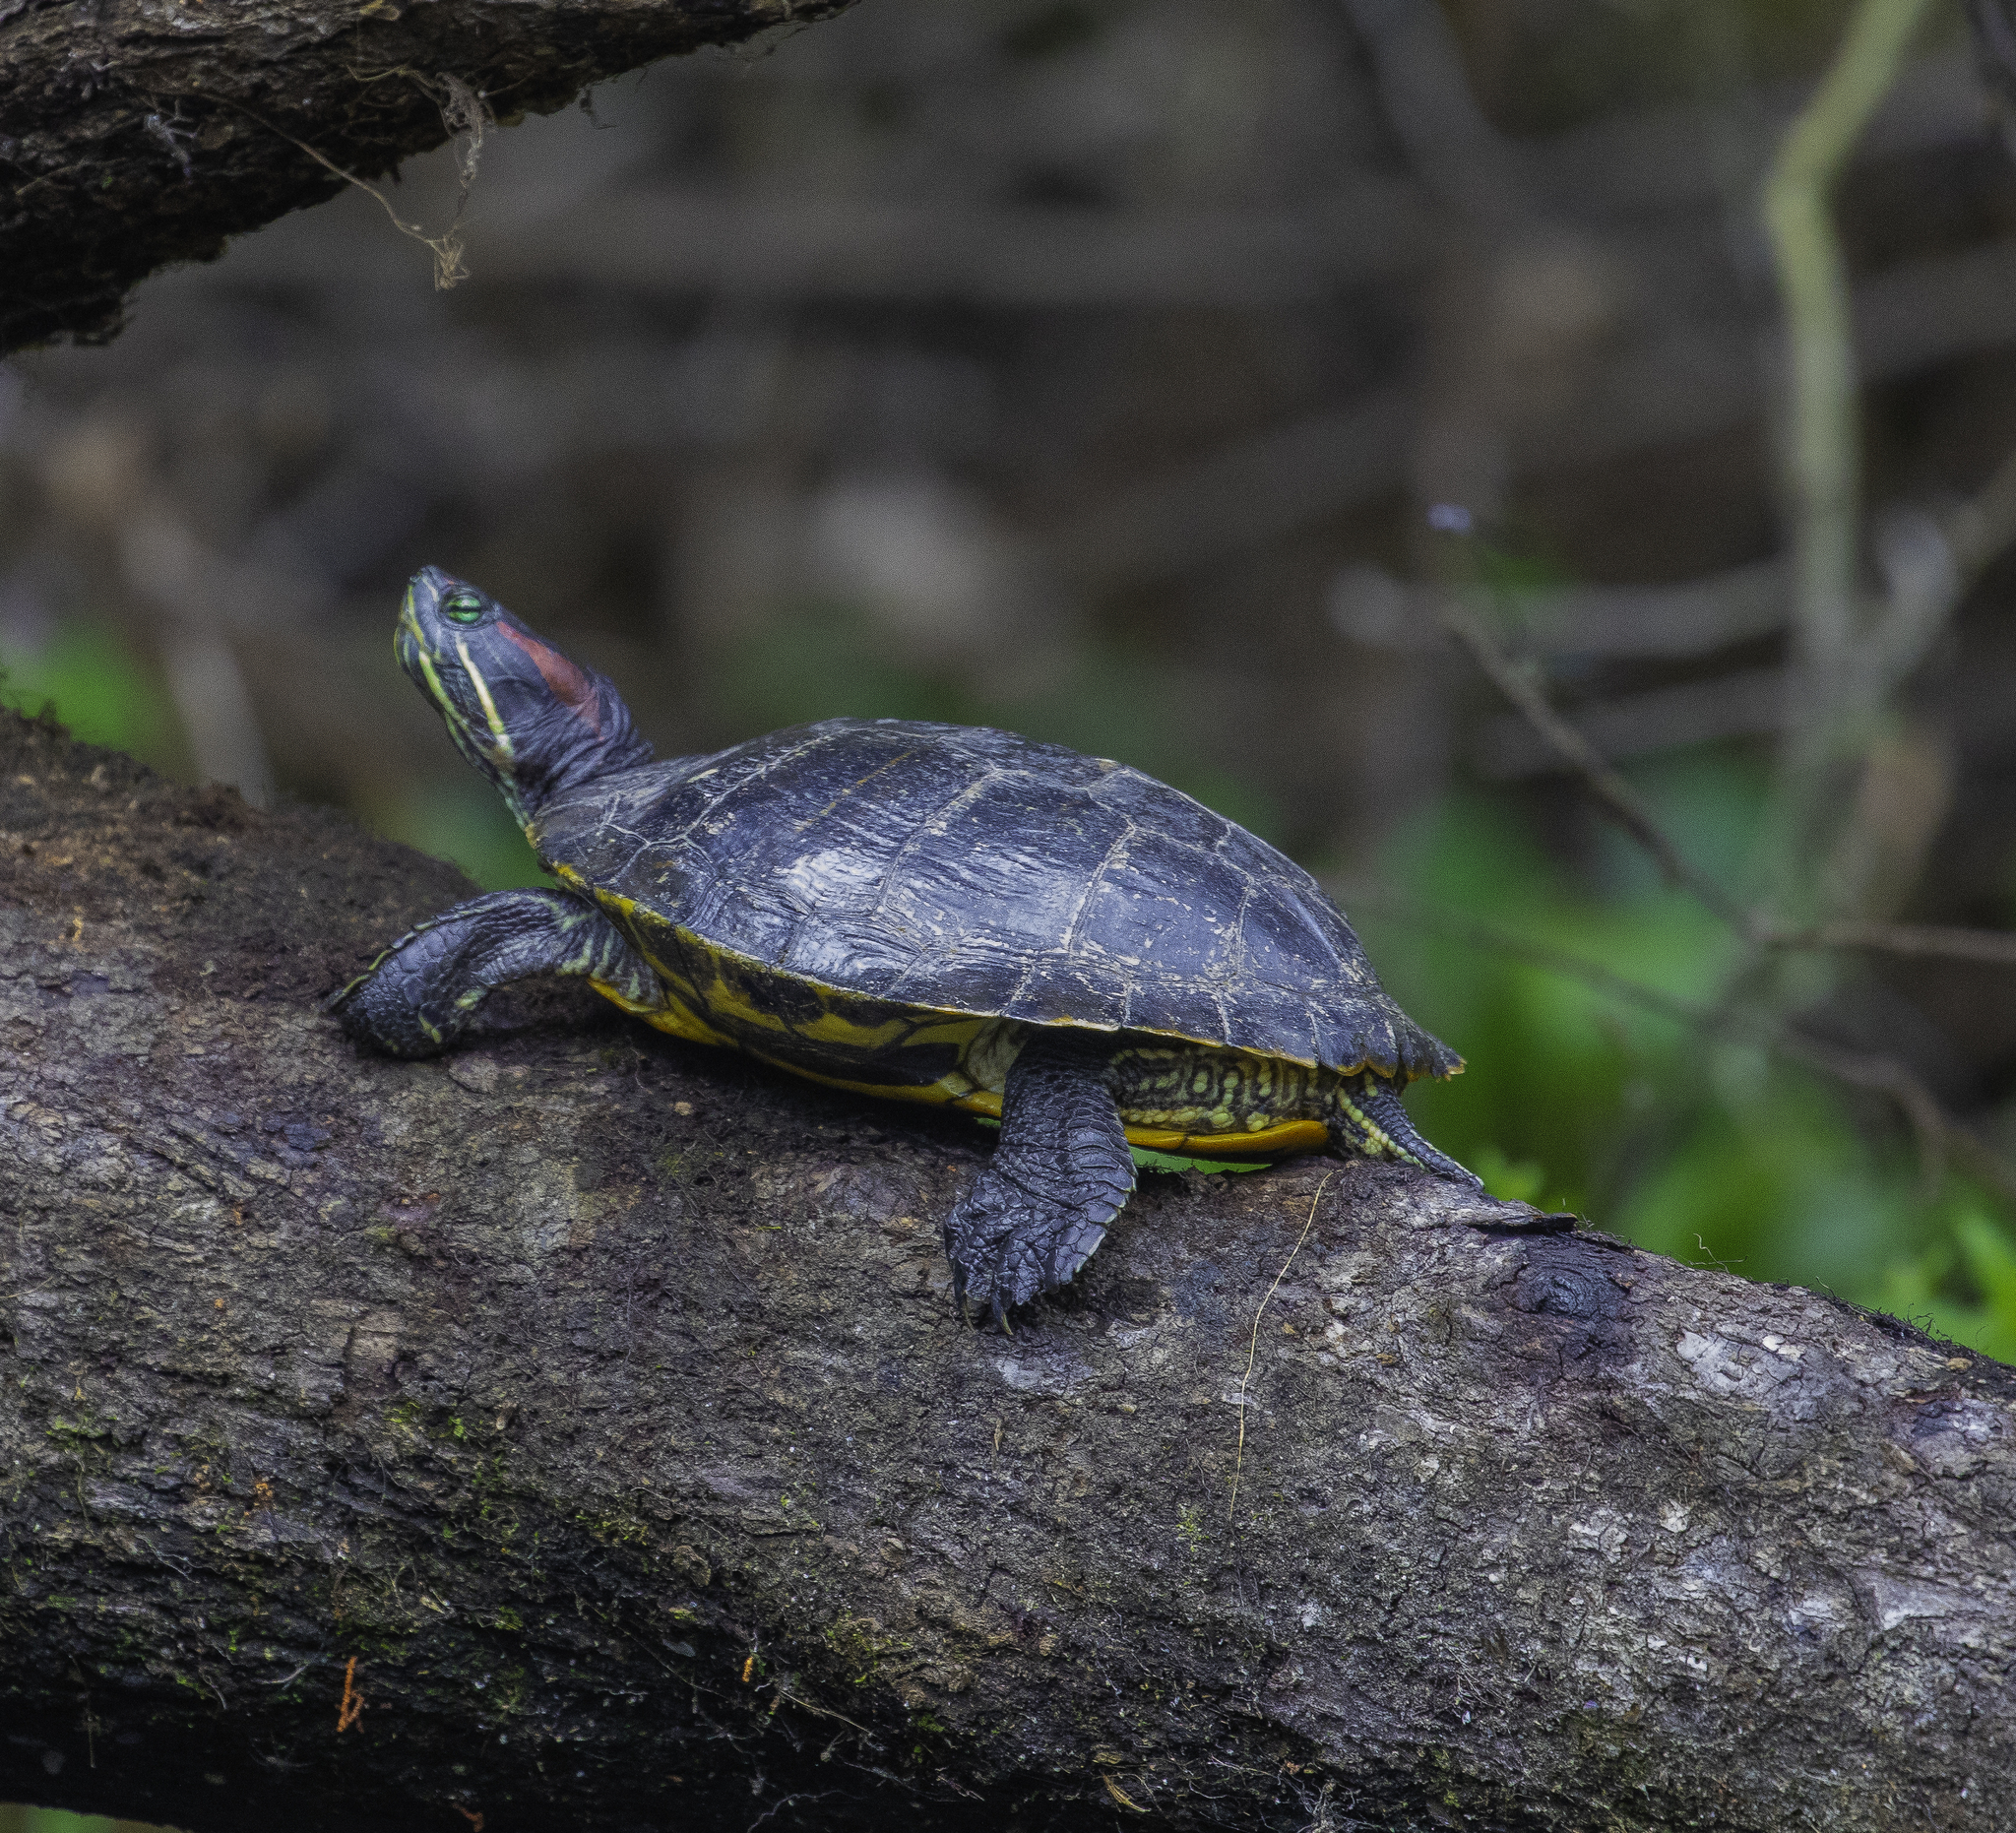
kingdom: Animalia
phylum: Chordata
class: Testudines
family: Emydidae
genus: Trachemys
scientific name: Trachemys scripta
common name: Slider
